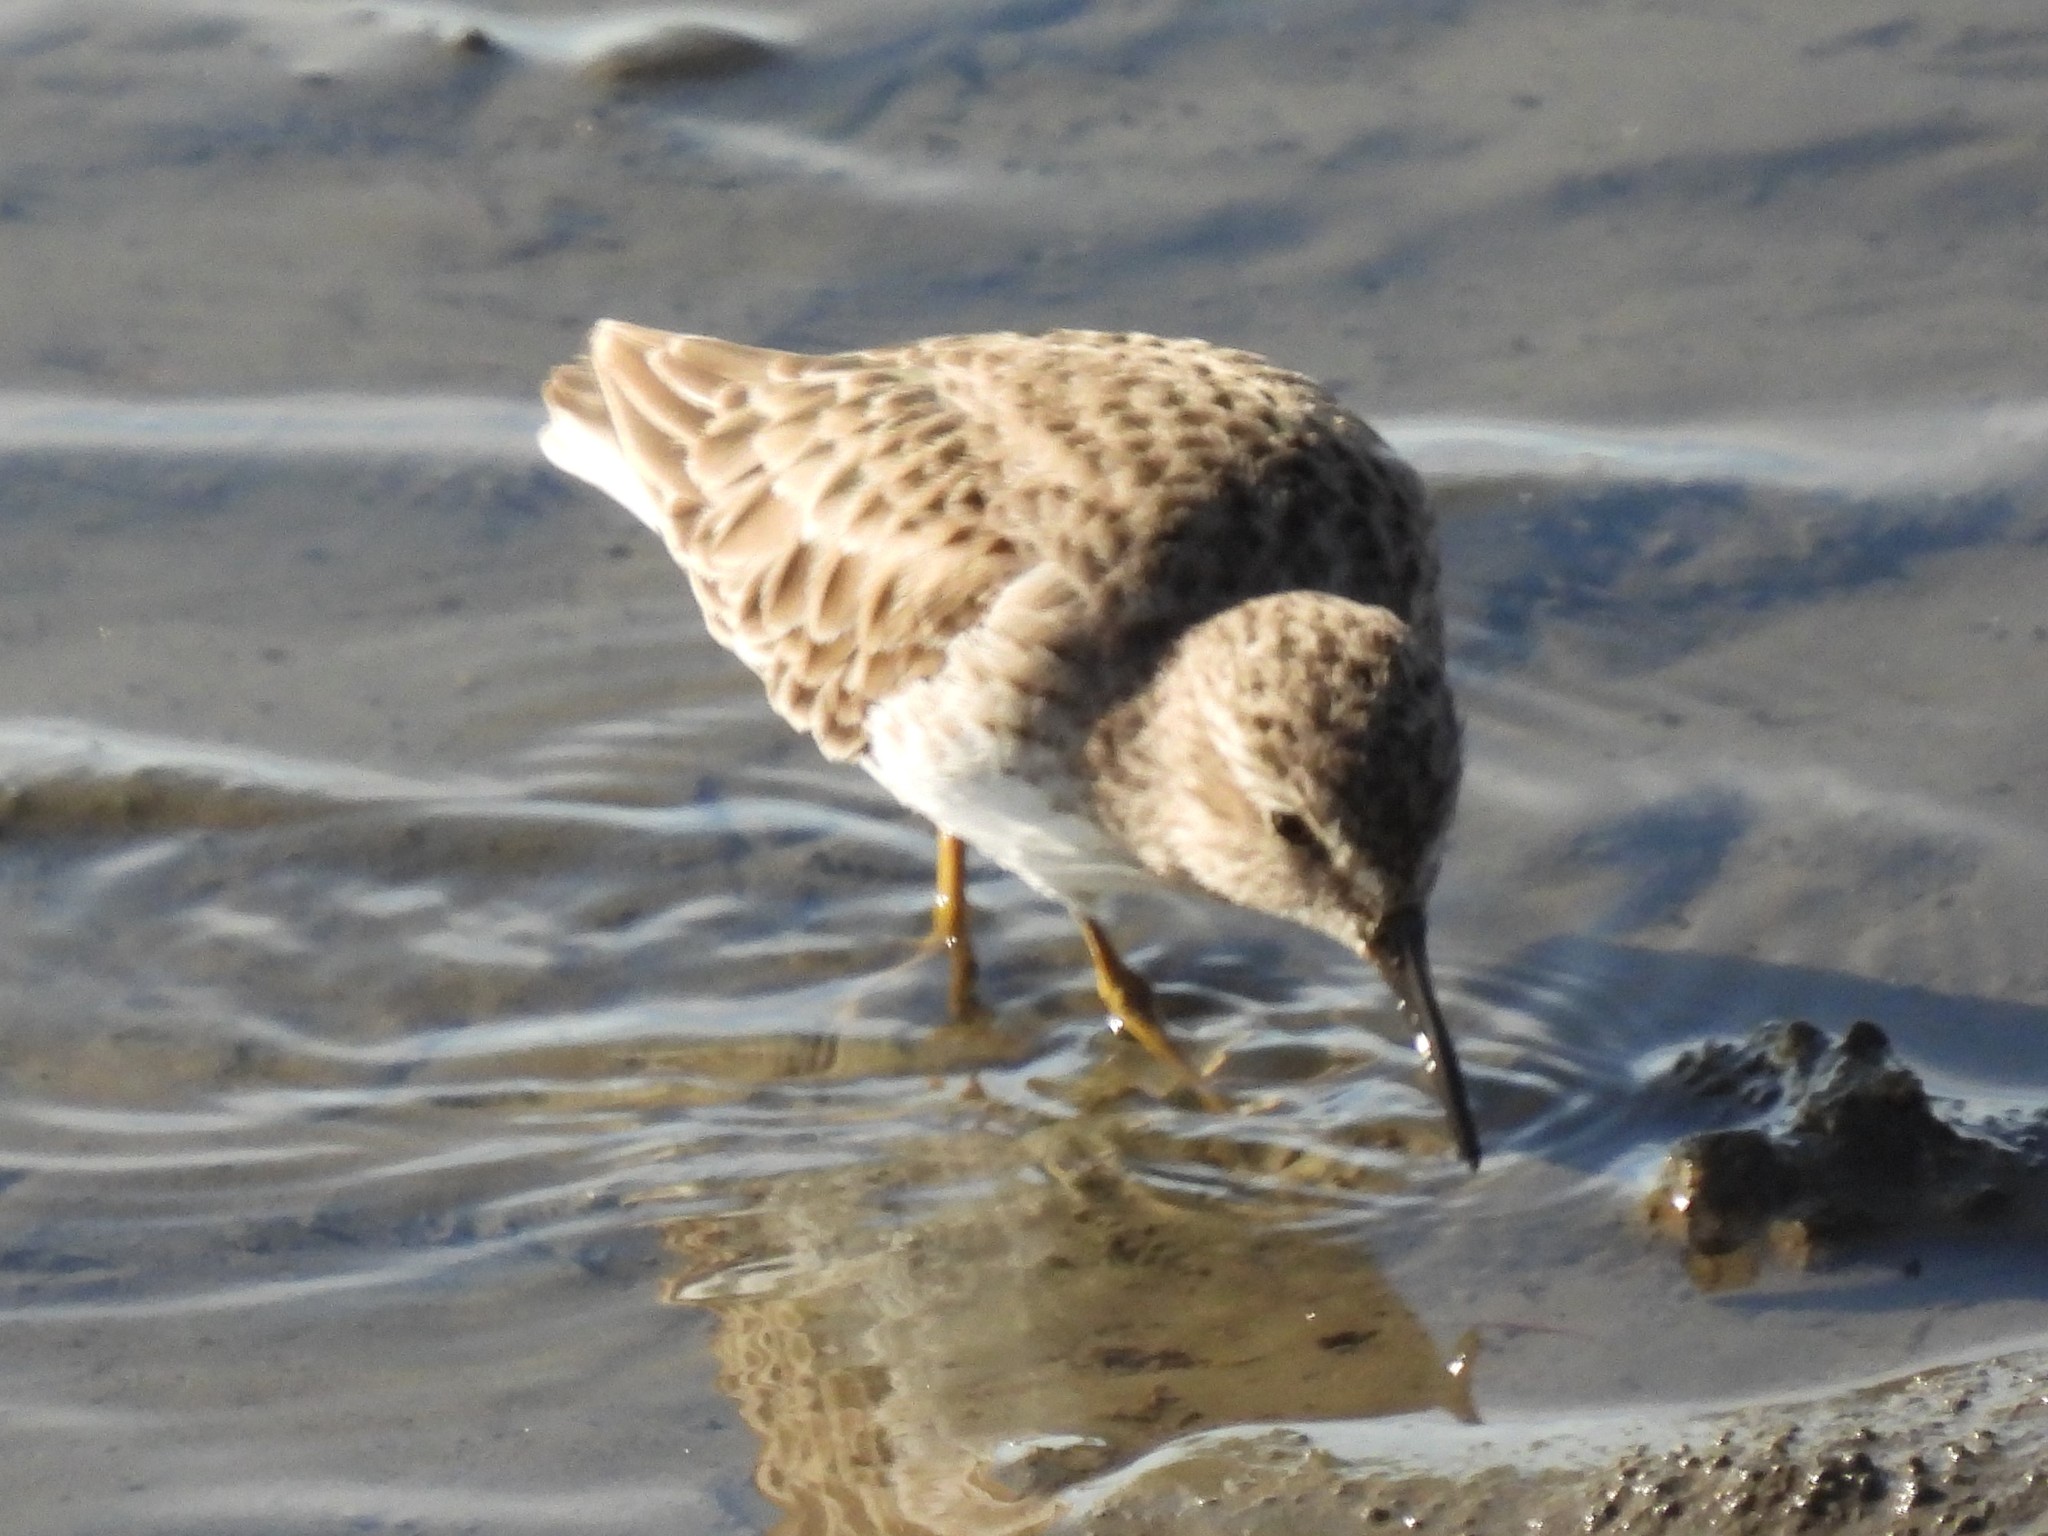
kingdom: Animalia
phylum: Chordata
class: Aves
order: Charadriiformes
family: Scolopacidae
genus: Calidris
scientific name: Calidris minutilla
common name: Least sandpiper
